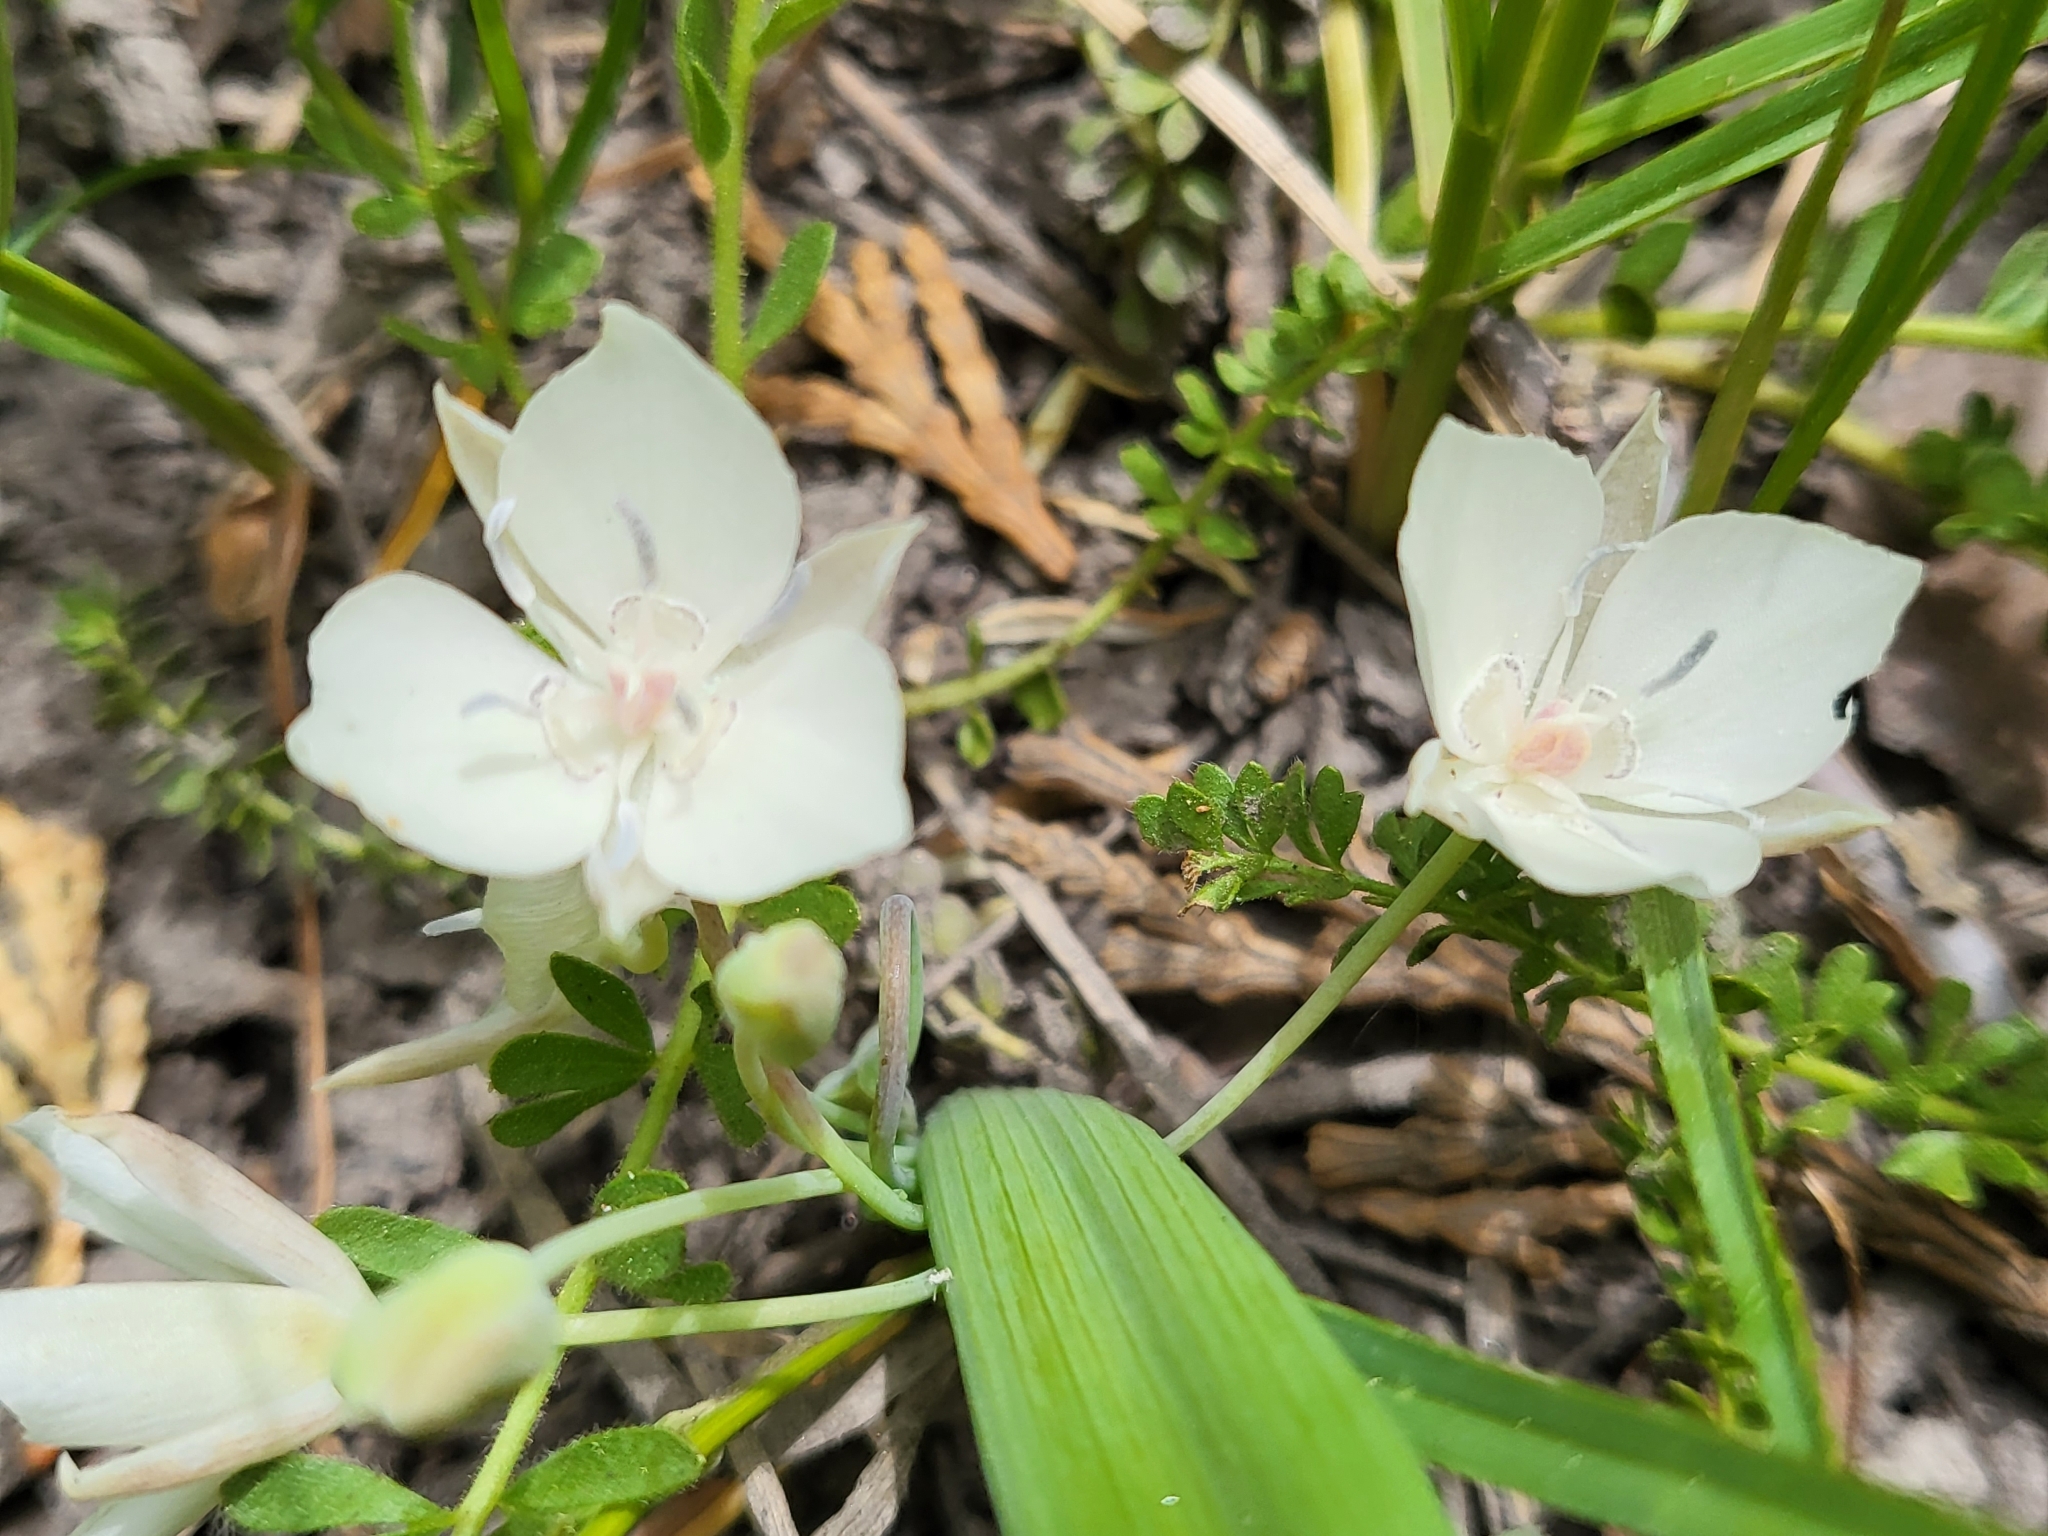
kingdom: Plantae
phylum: Tracheophyta
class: Liliopsida
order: Liliales
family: Liliaceae
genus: Calochortus
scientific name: Calochortus minimus
